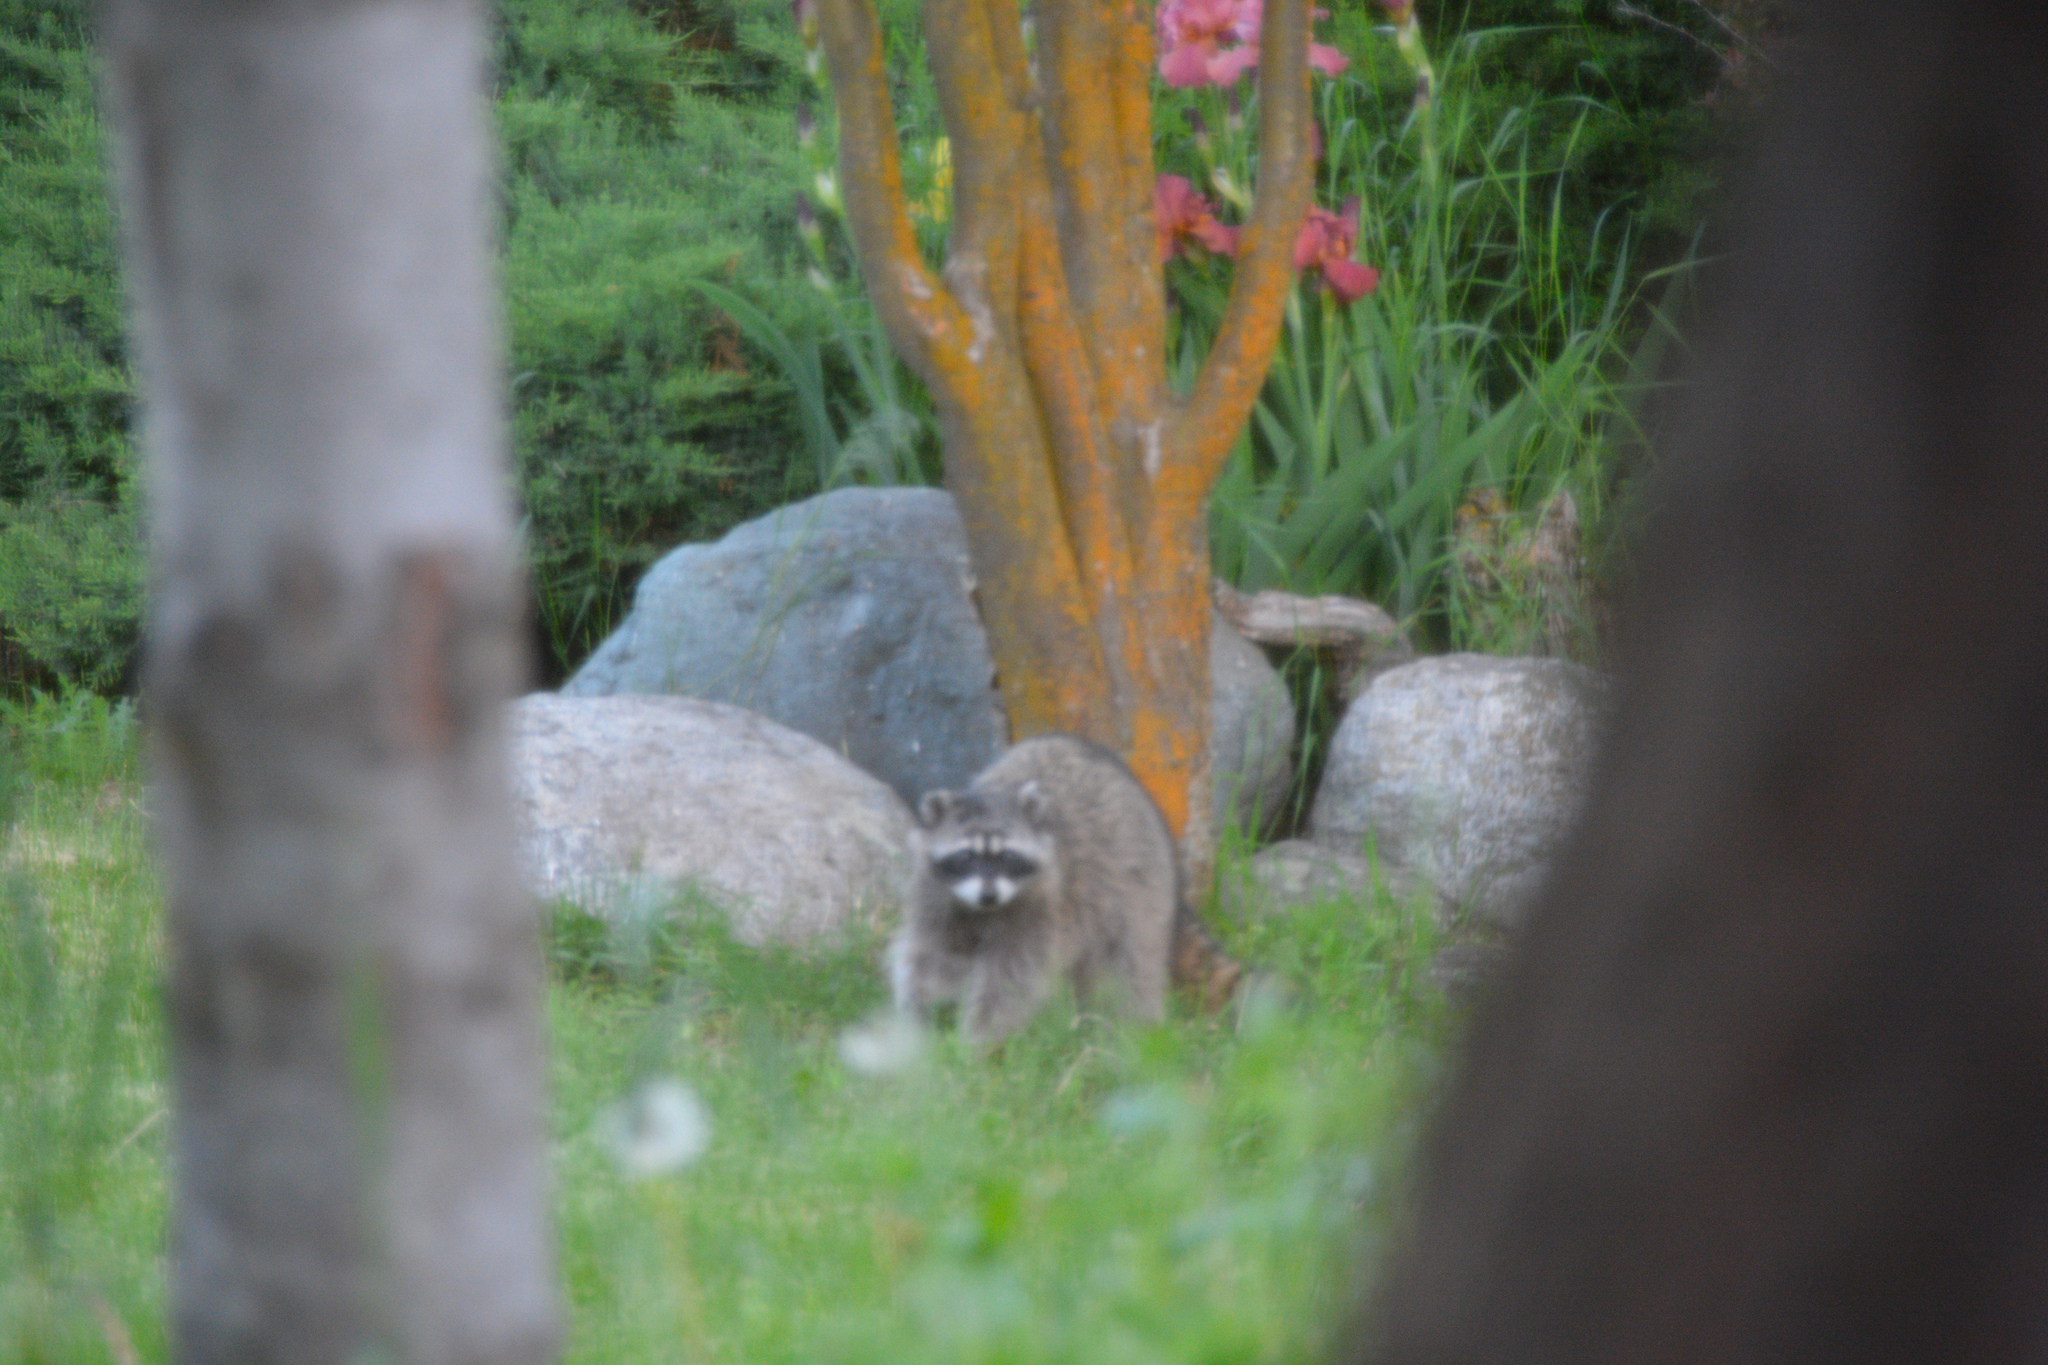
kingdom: Animalia
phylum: Chordata
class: Mammalia
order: Carnivora
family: Procyonidae
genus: Procyon
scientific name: Procyon lotor
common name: Raccoon
